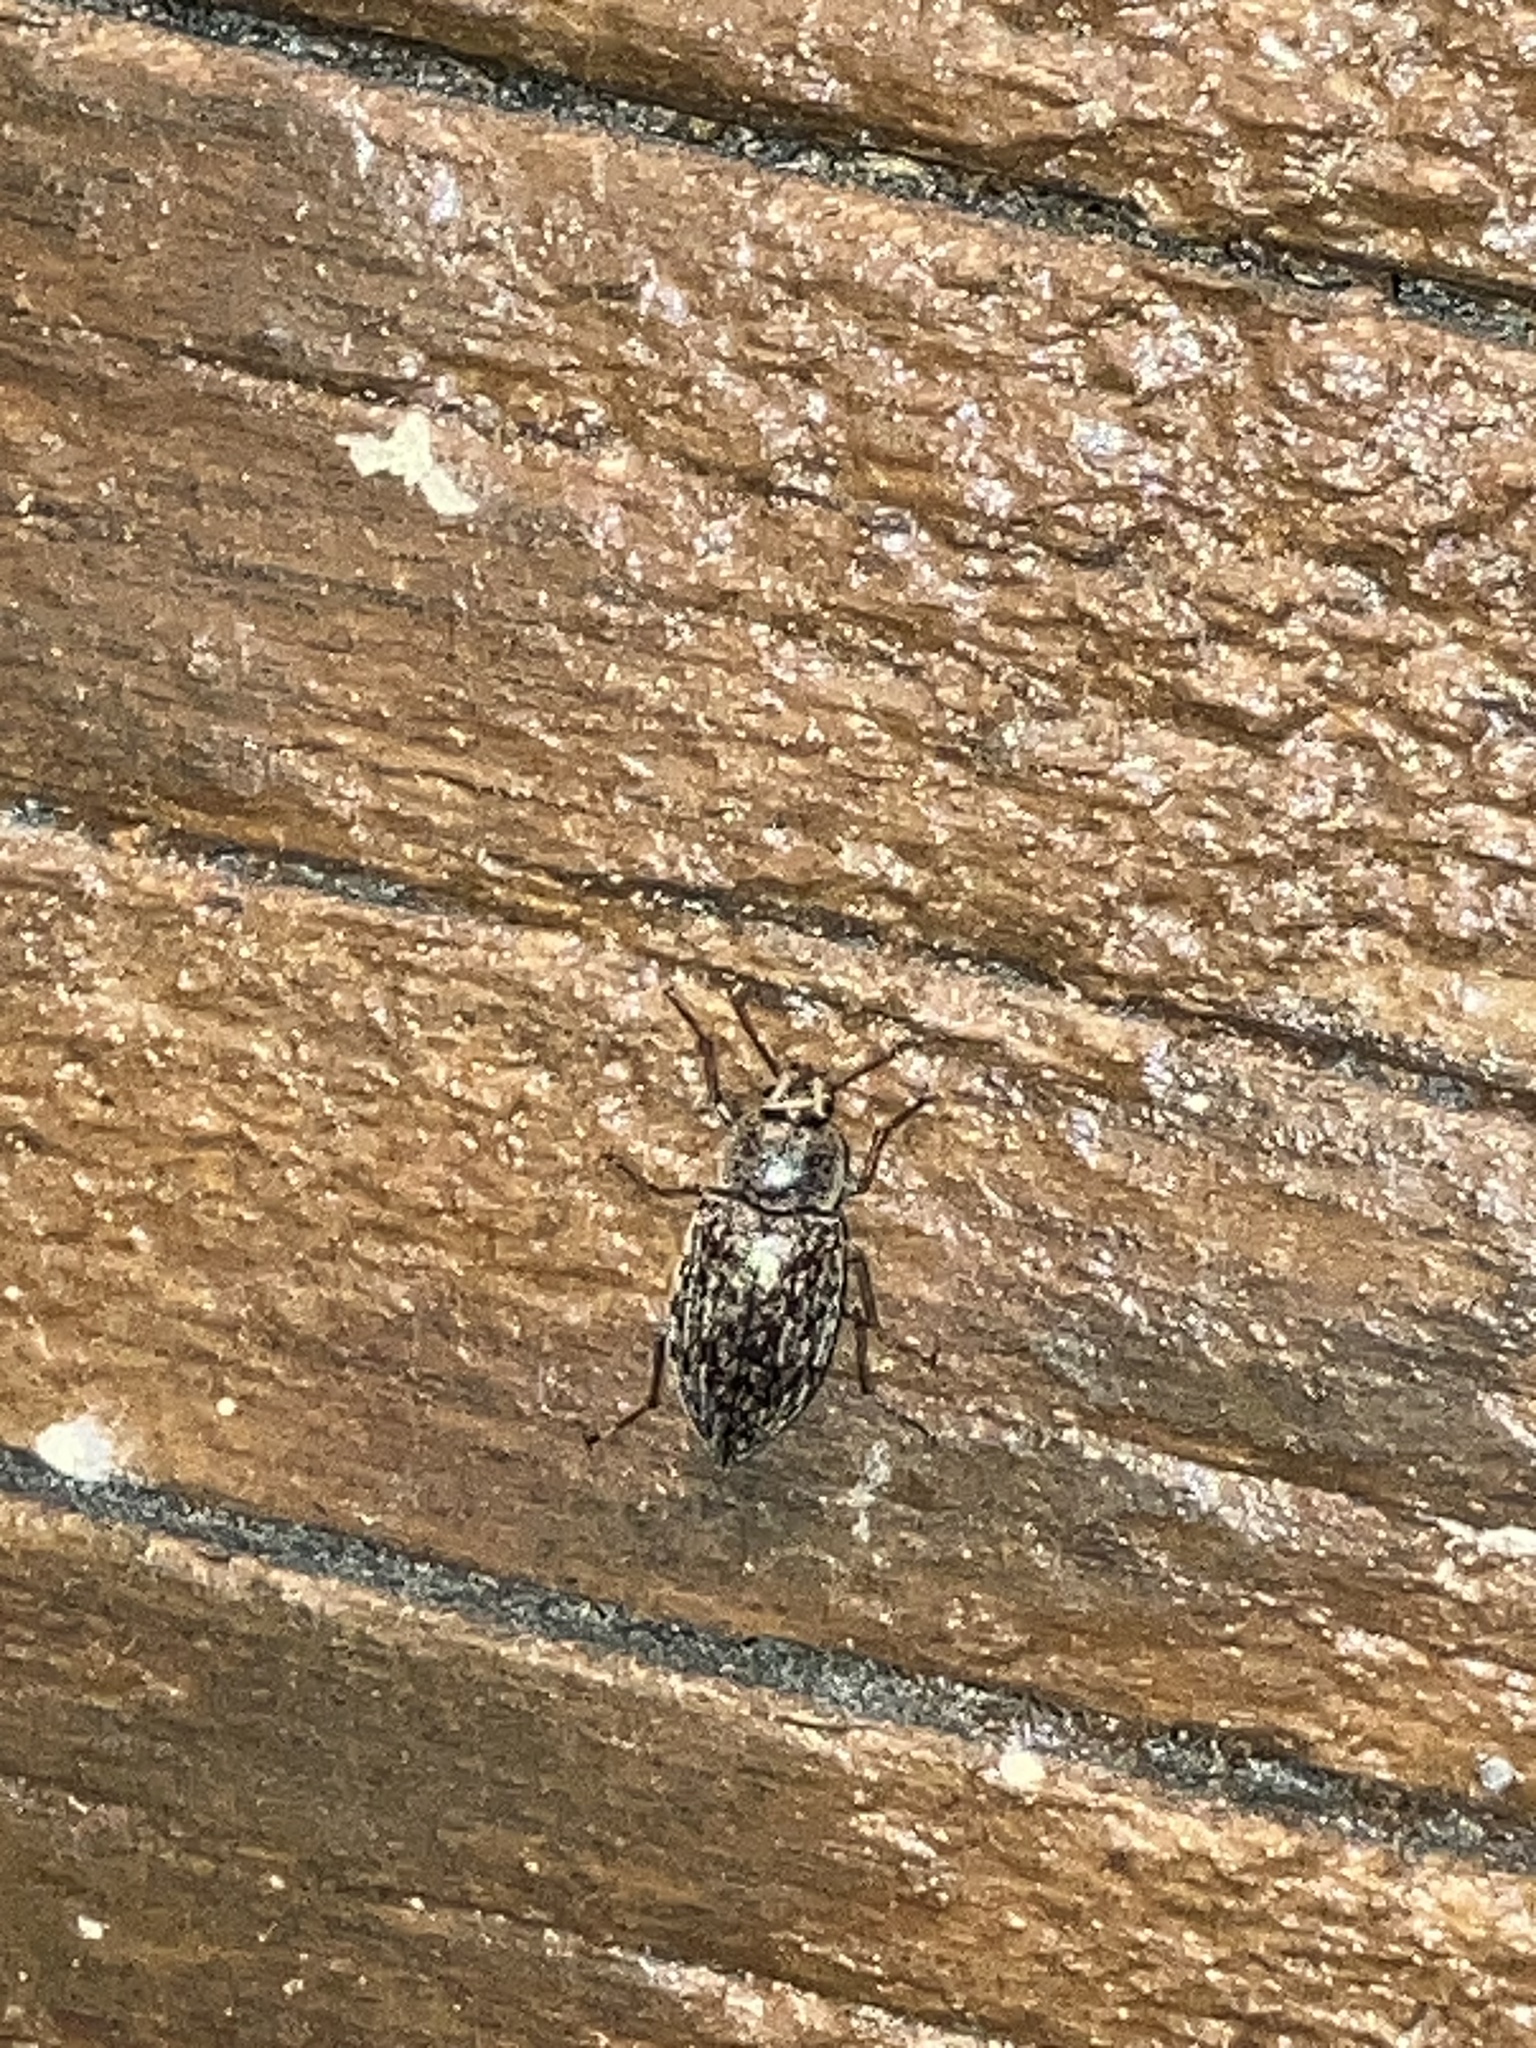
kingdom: Animalia
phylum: Arthropoda
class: Insecta
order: Coleoptera
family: Tenebrionidae
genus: Epitragodes
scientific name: Epitragodes tomentosus
